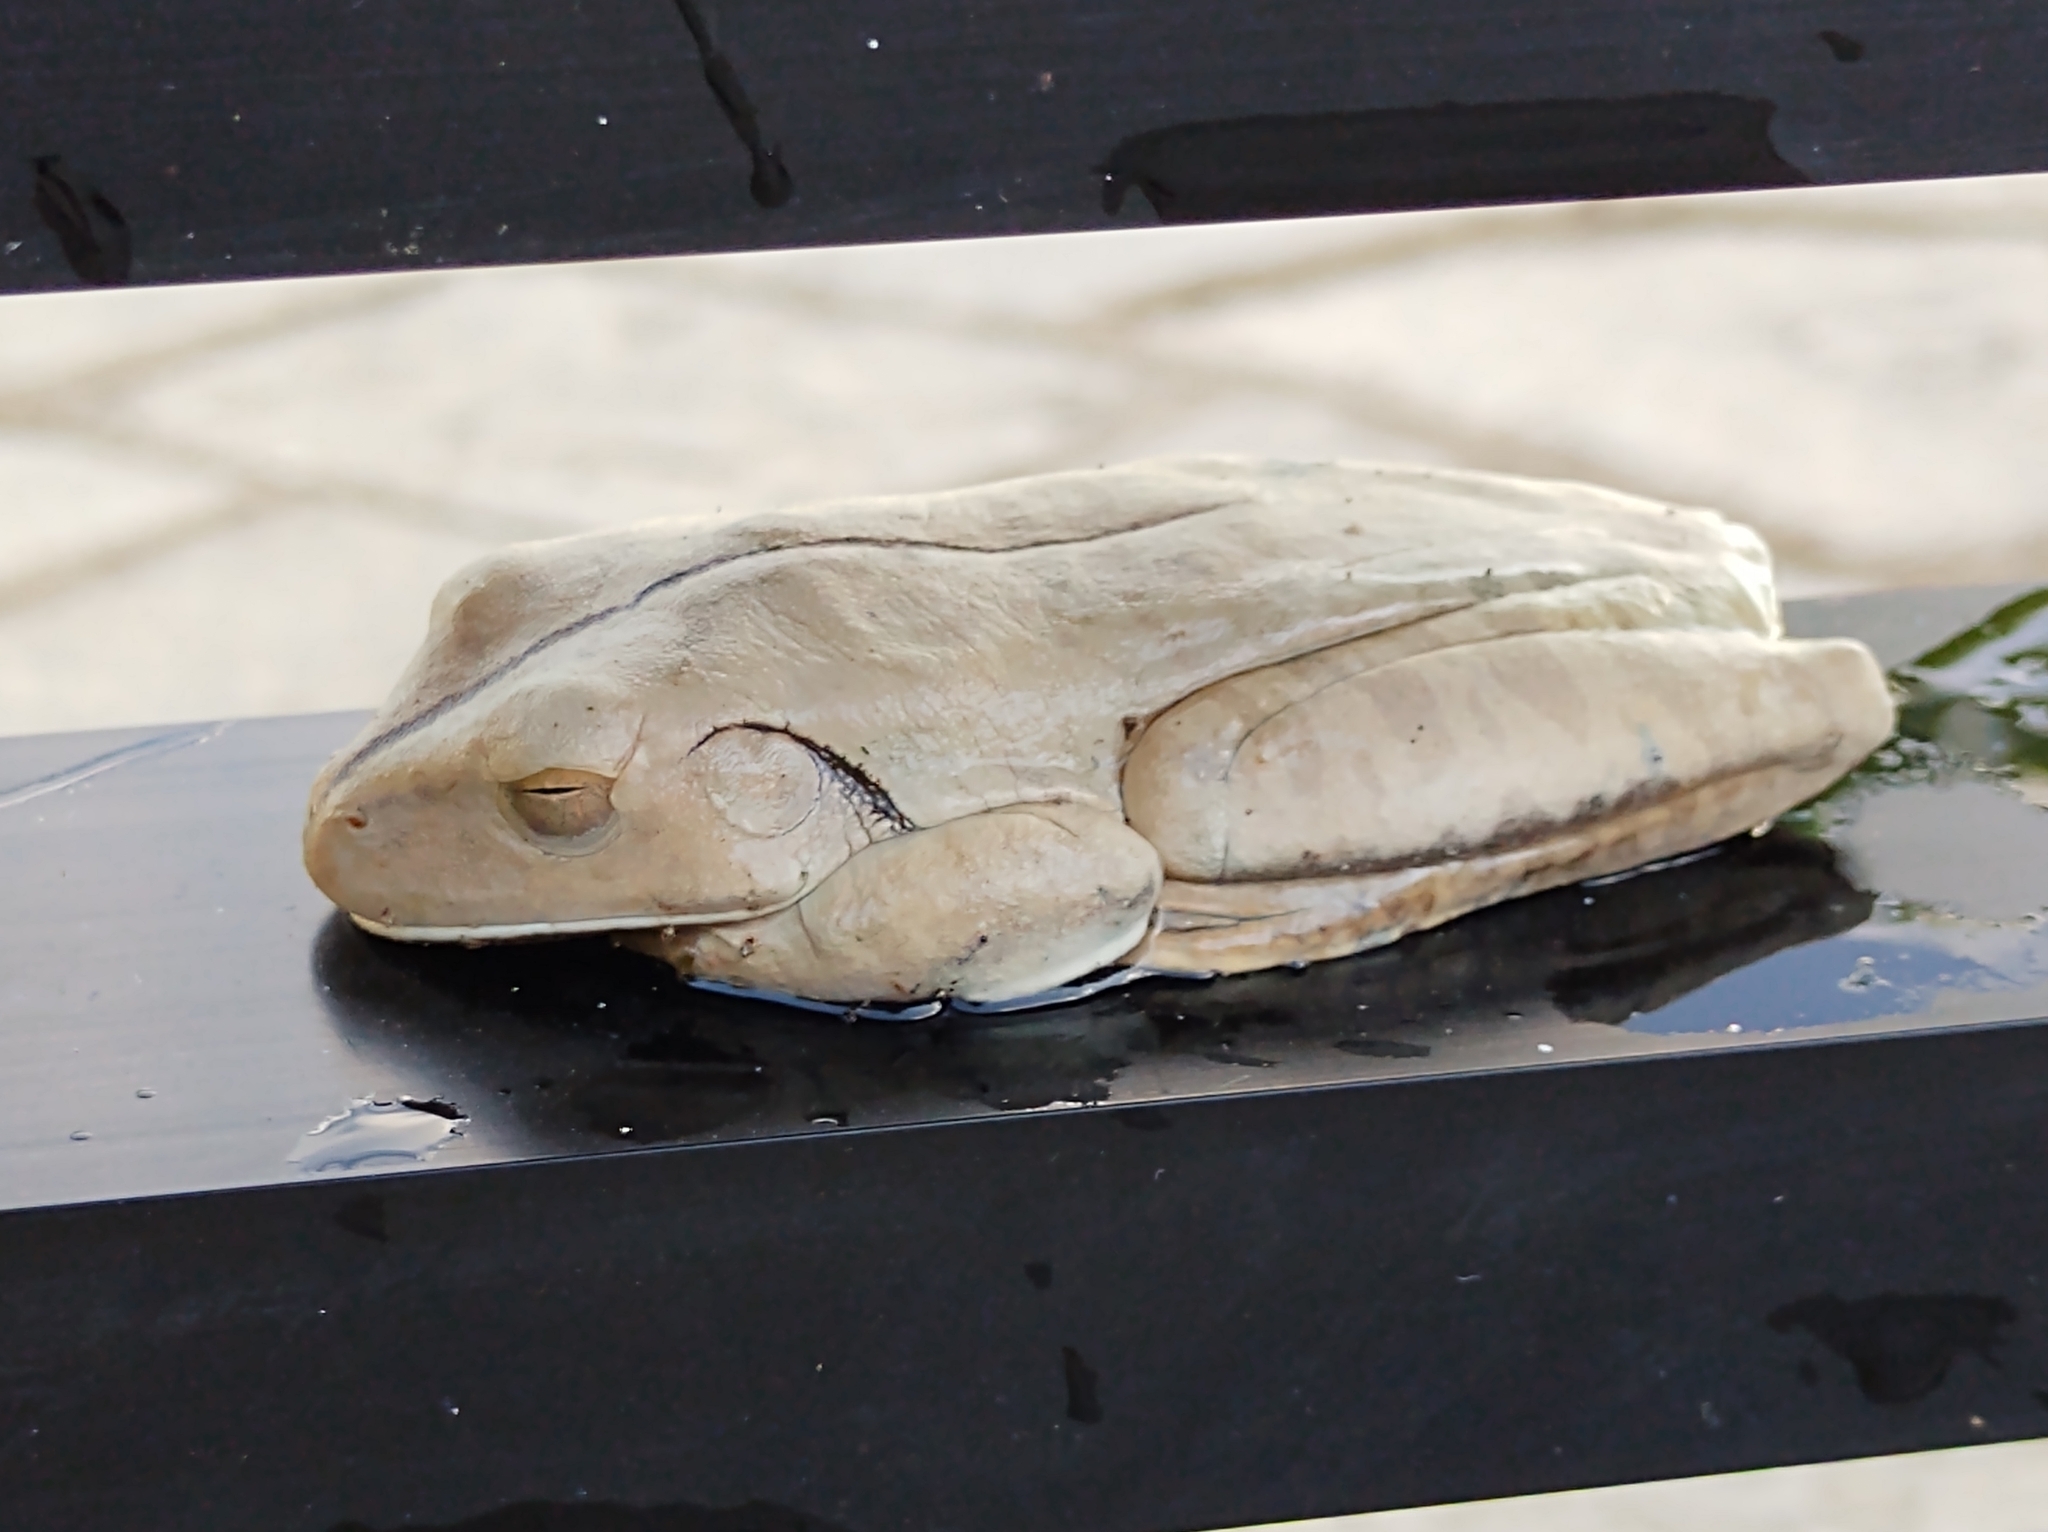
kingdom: Animalia
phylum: Chordata
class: Amphibia
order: Anura
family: Hylidae
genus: Boana
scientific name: Boana faber
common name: Blacksmith tree frog
